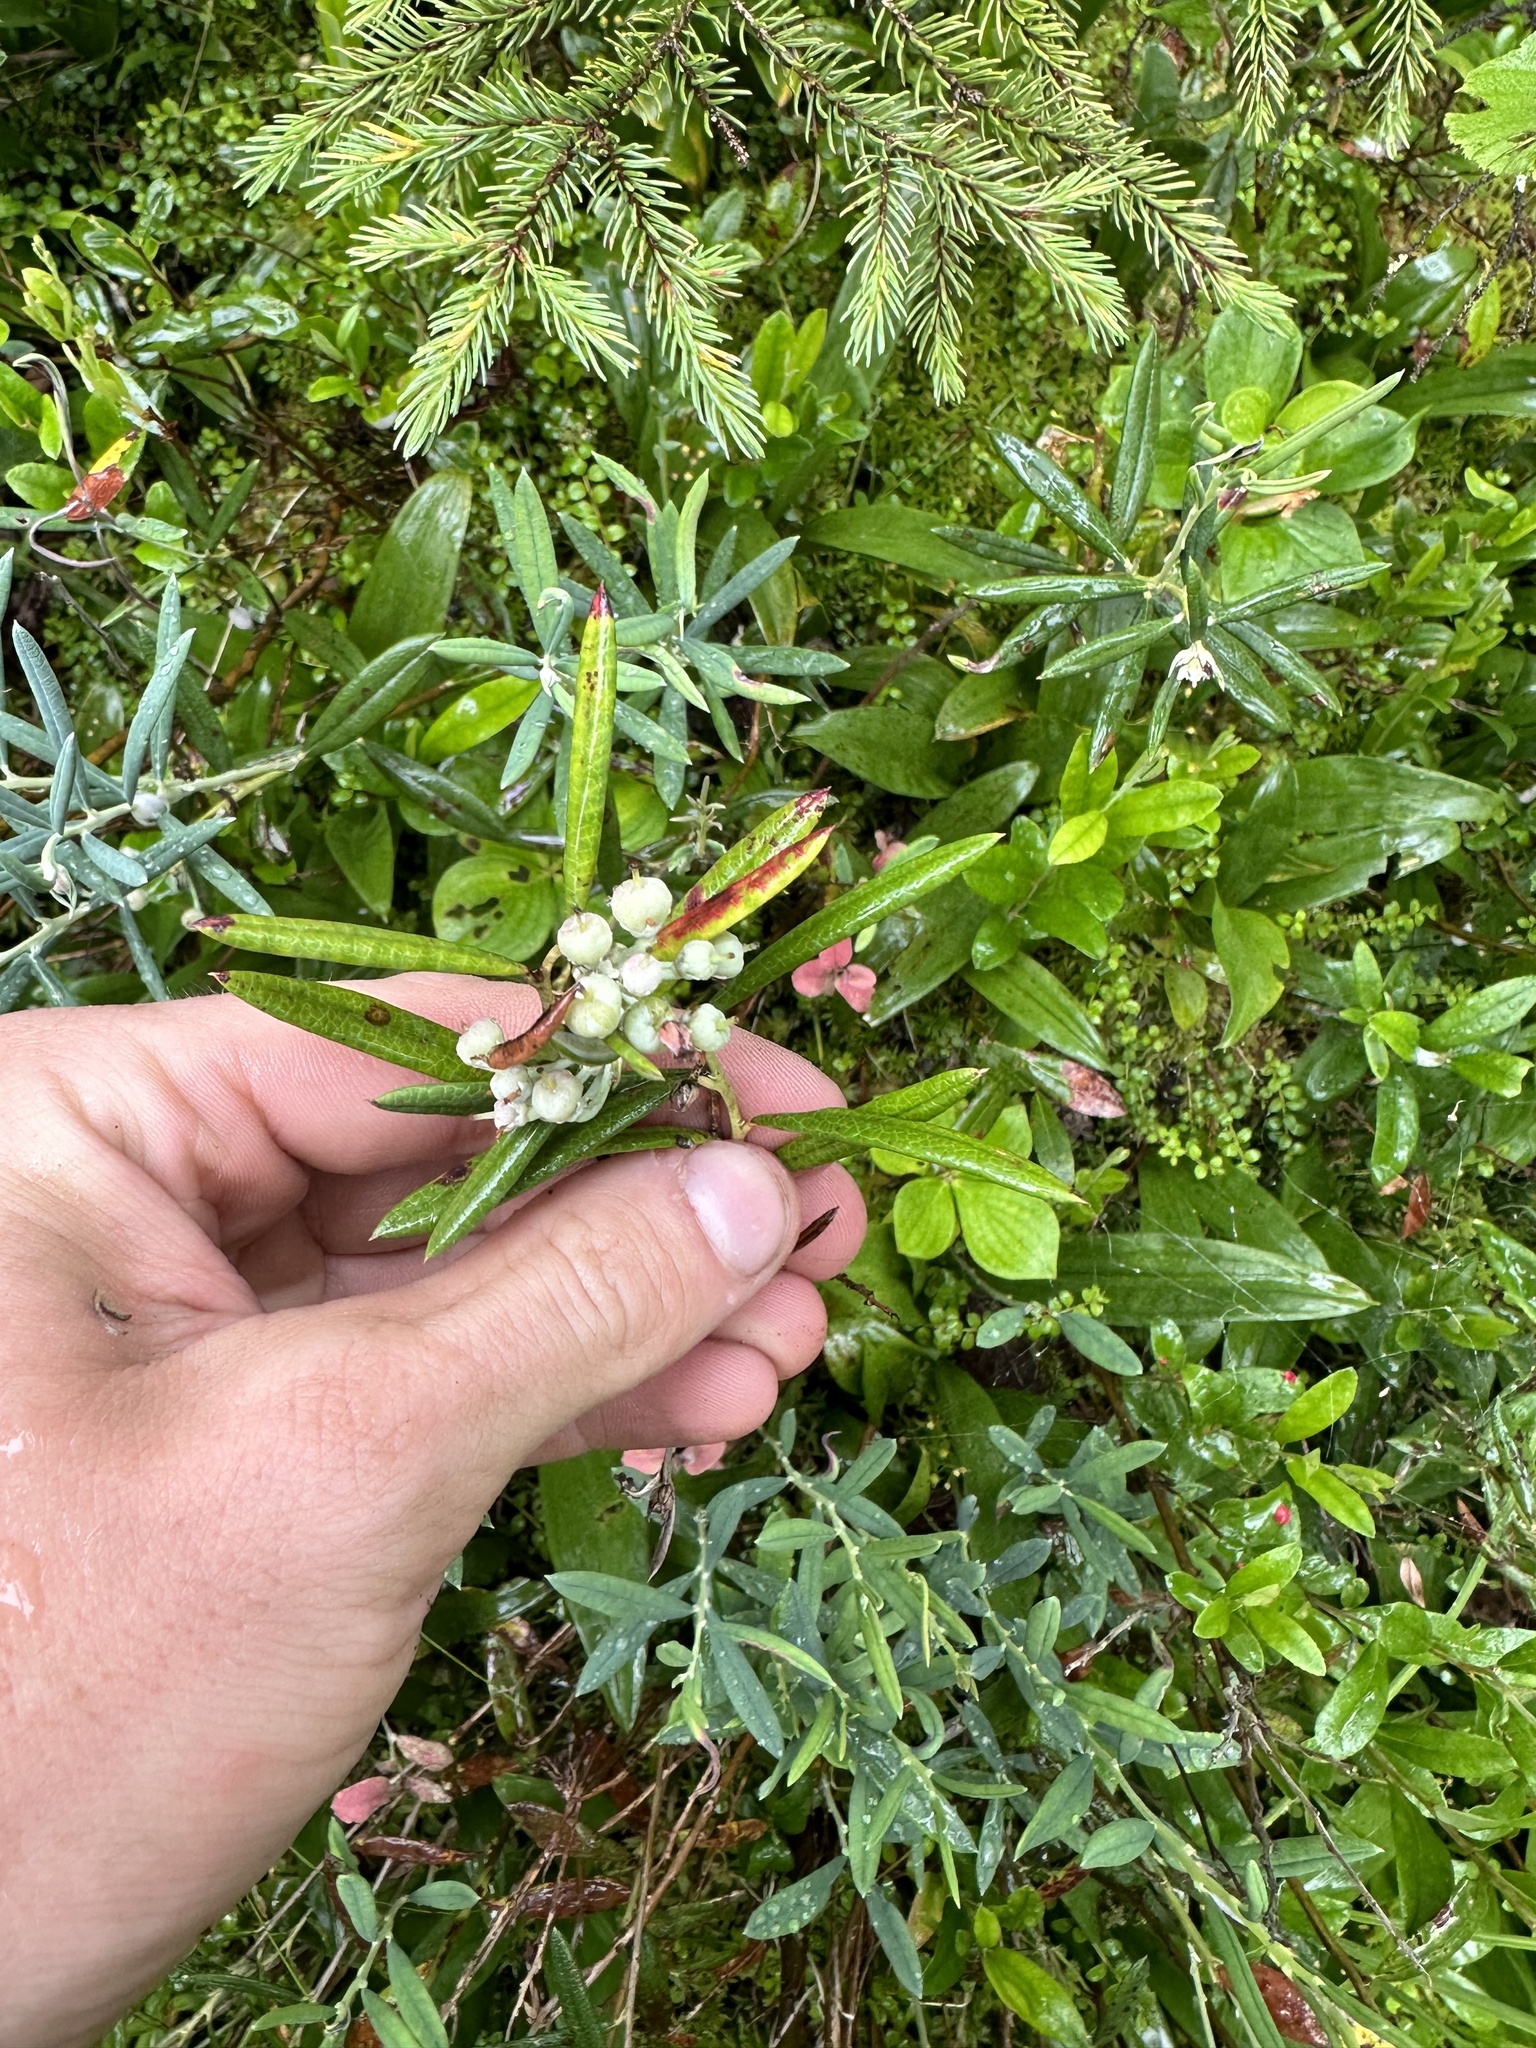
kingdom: Plantae
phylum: Tracheophyta
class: Magnoliopsida
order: Ericales
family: Ericaceae
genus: Rhododendron
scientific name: Rhododendron groenlandicum
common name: Bog labrador tea
